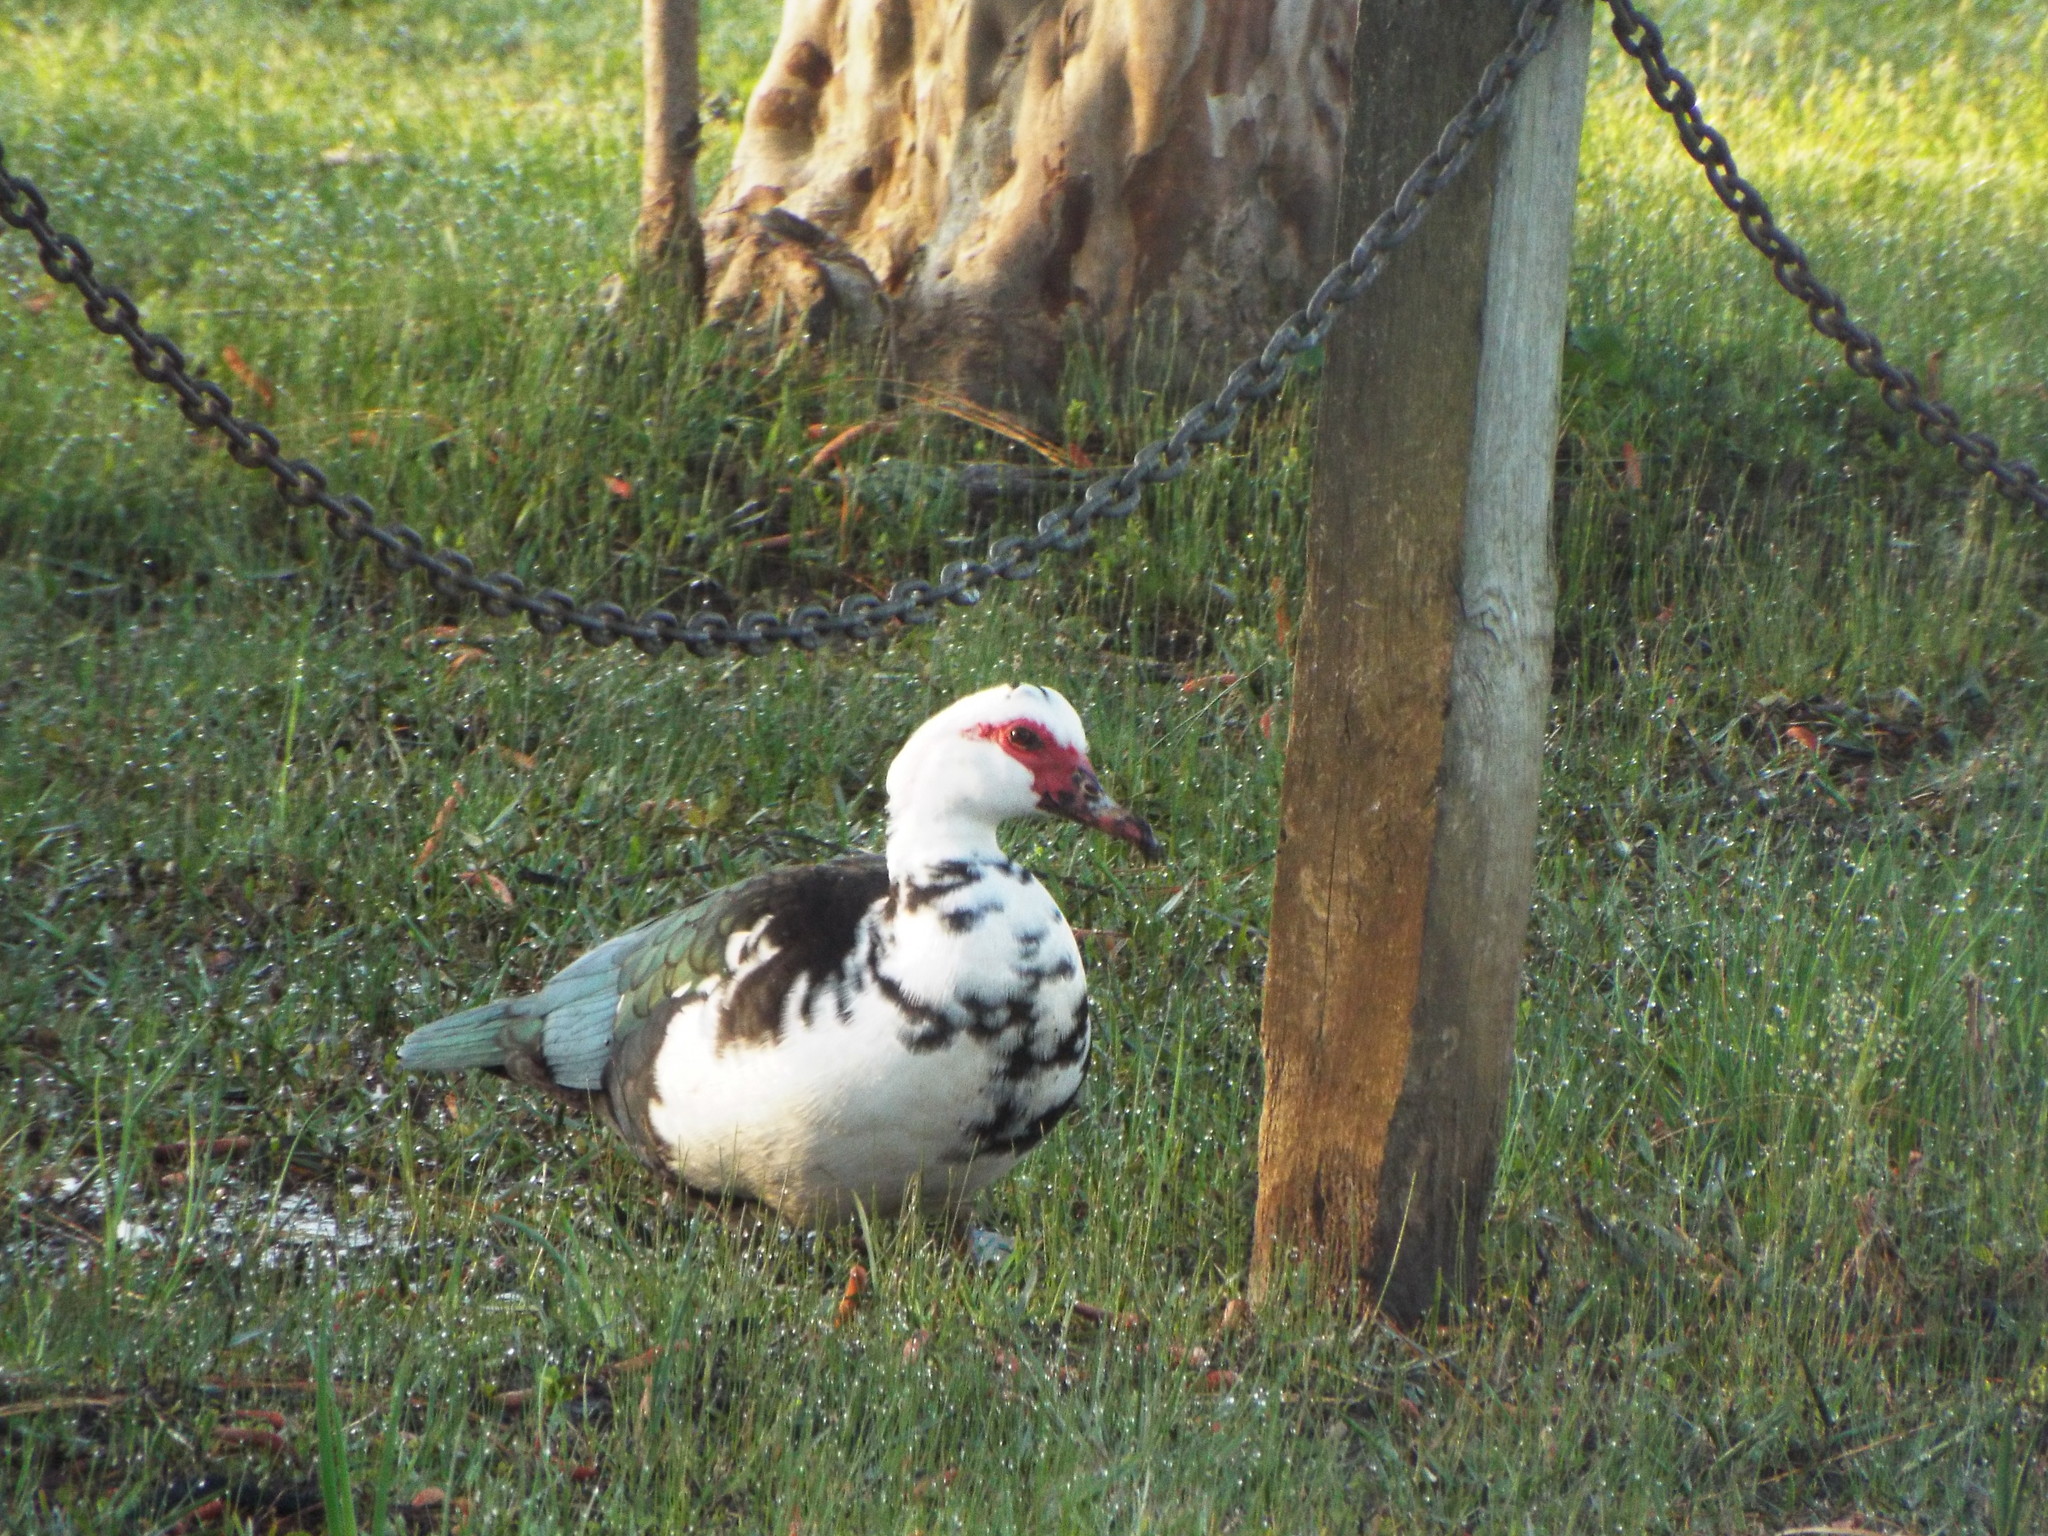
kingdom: Animalia
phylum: Chordata
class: Aves
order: Anseriformes
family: Anatidae
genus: Cairina
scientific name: Cairina moschata
